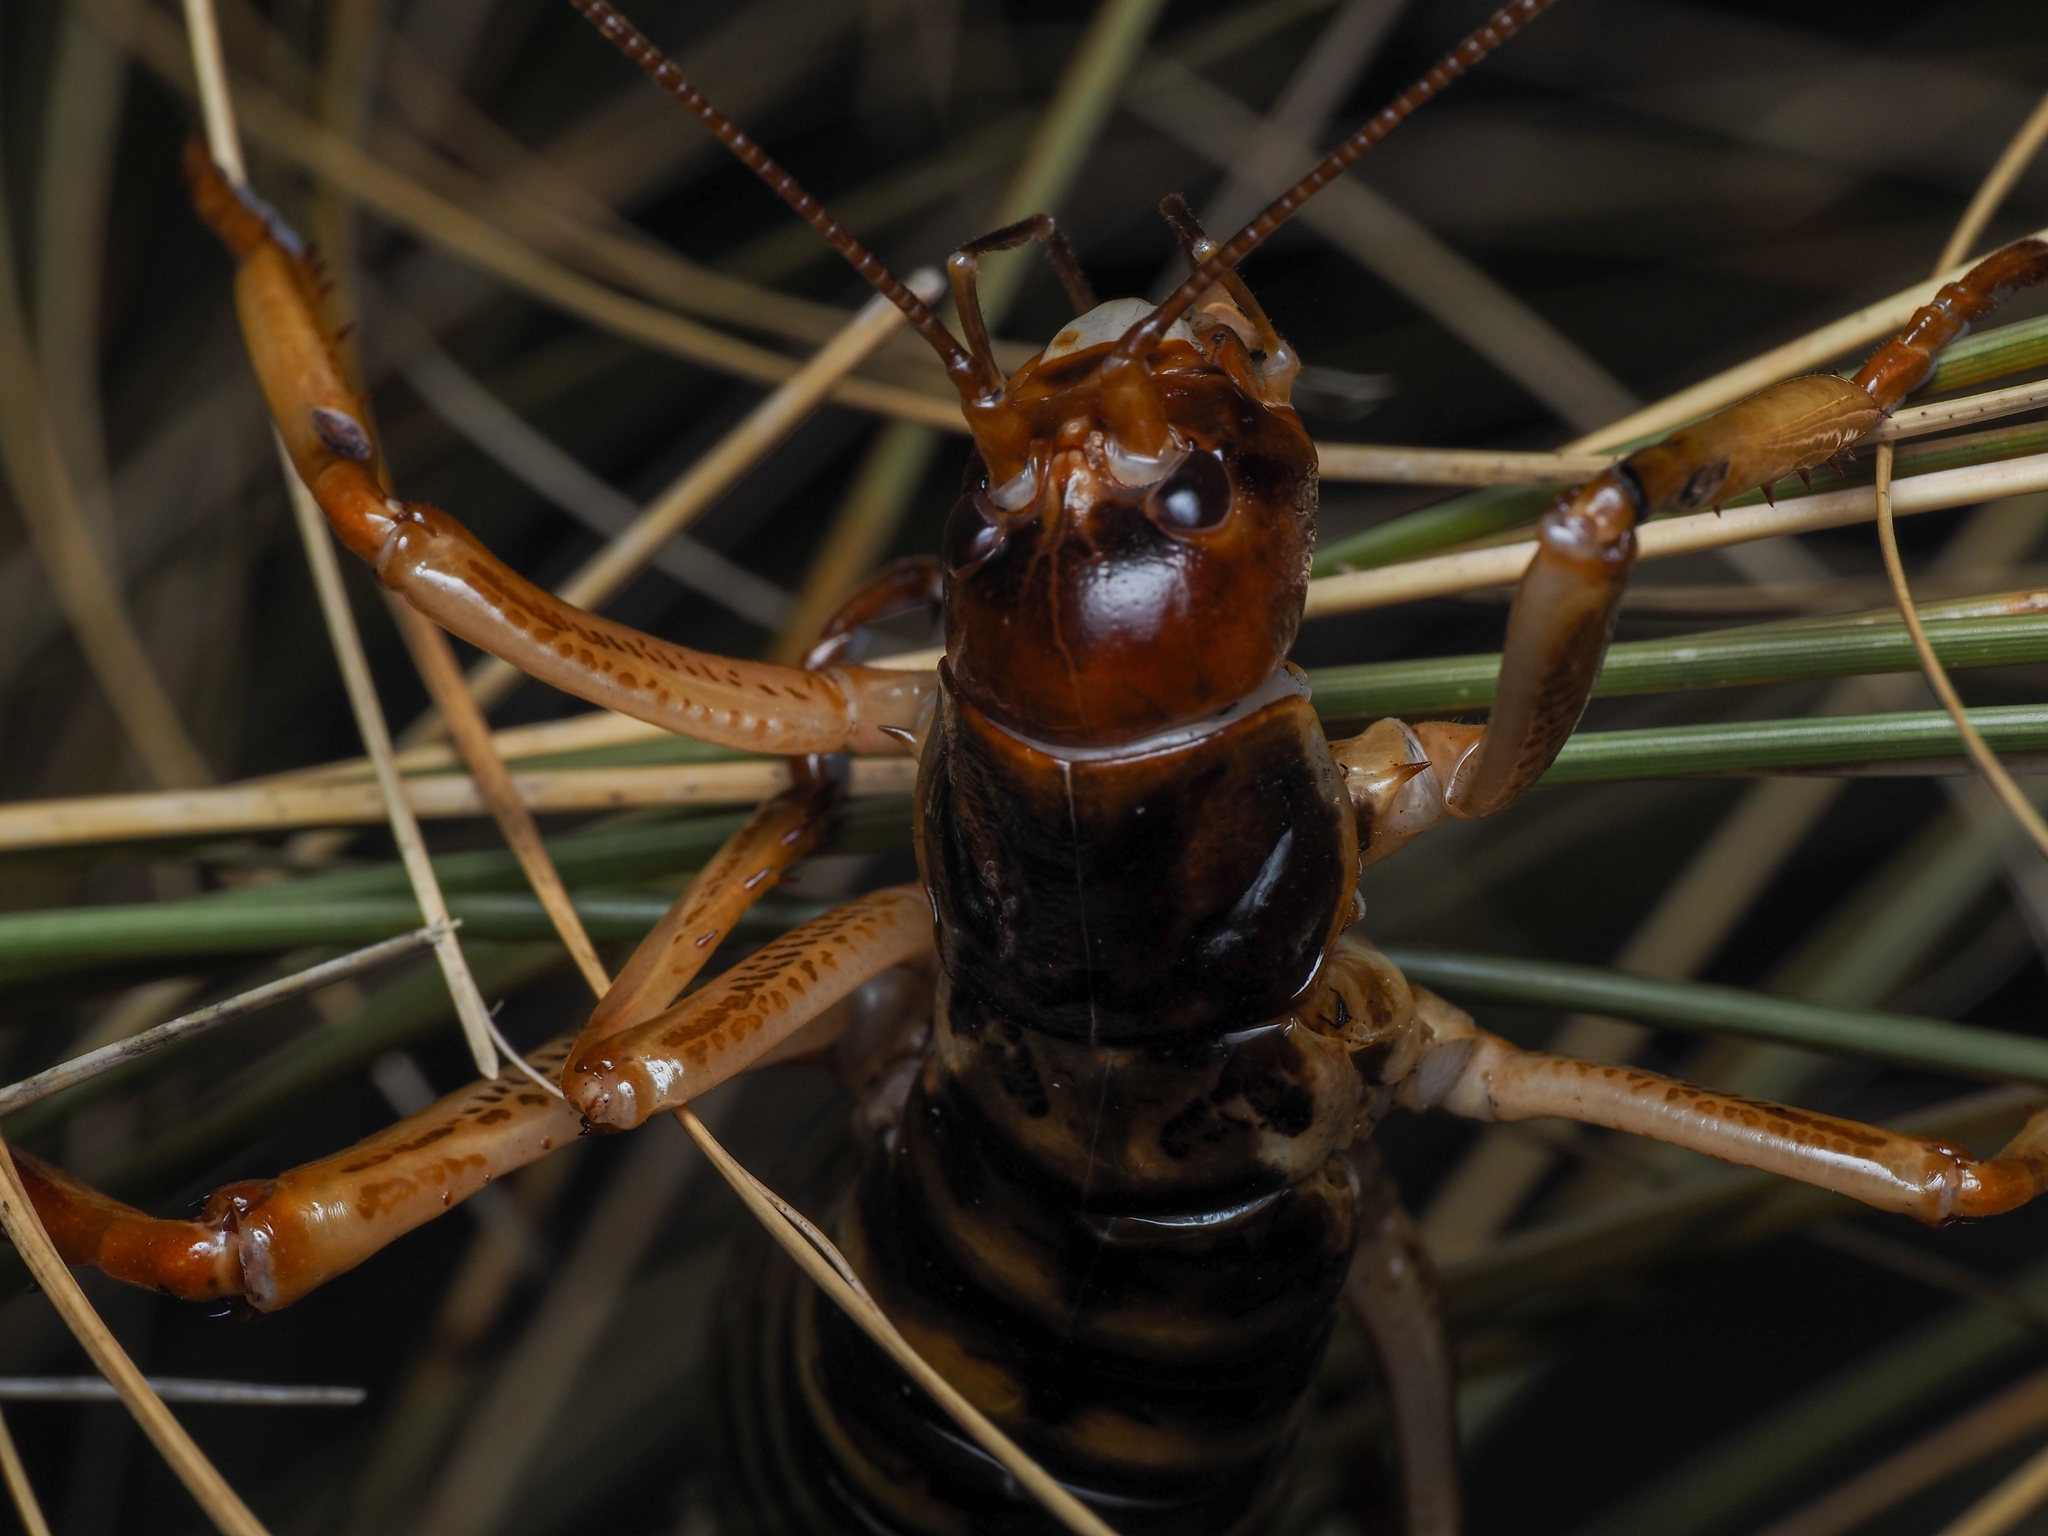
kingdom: Animalia
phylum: Arthropoda
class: Insecta
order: Orthoptera
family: Anostostomatidae
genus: Hemideina
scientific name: Hemideina crassidens
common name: Wellington tree weta
